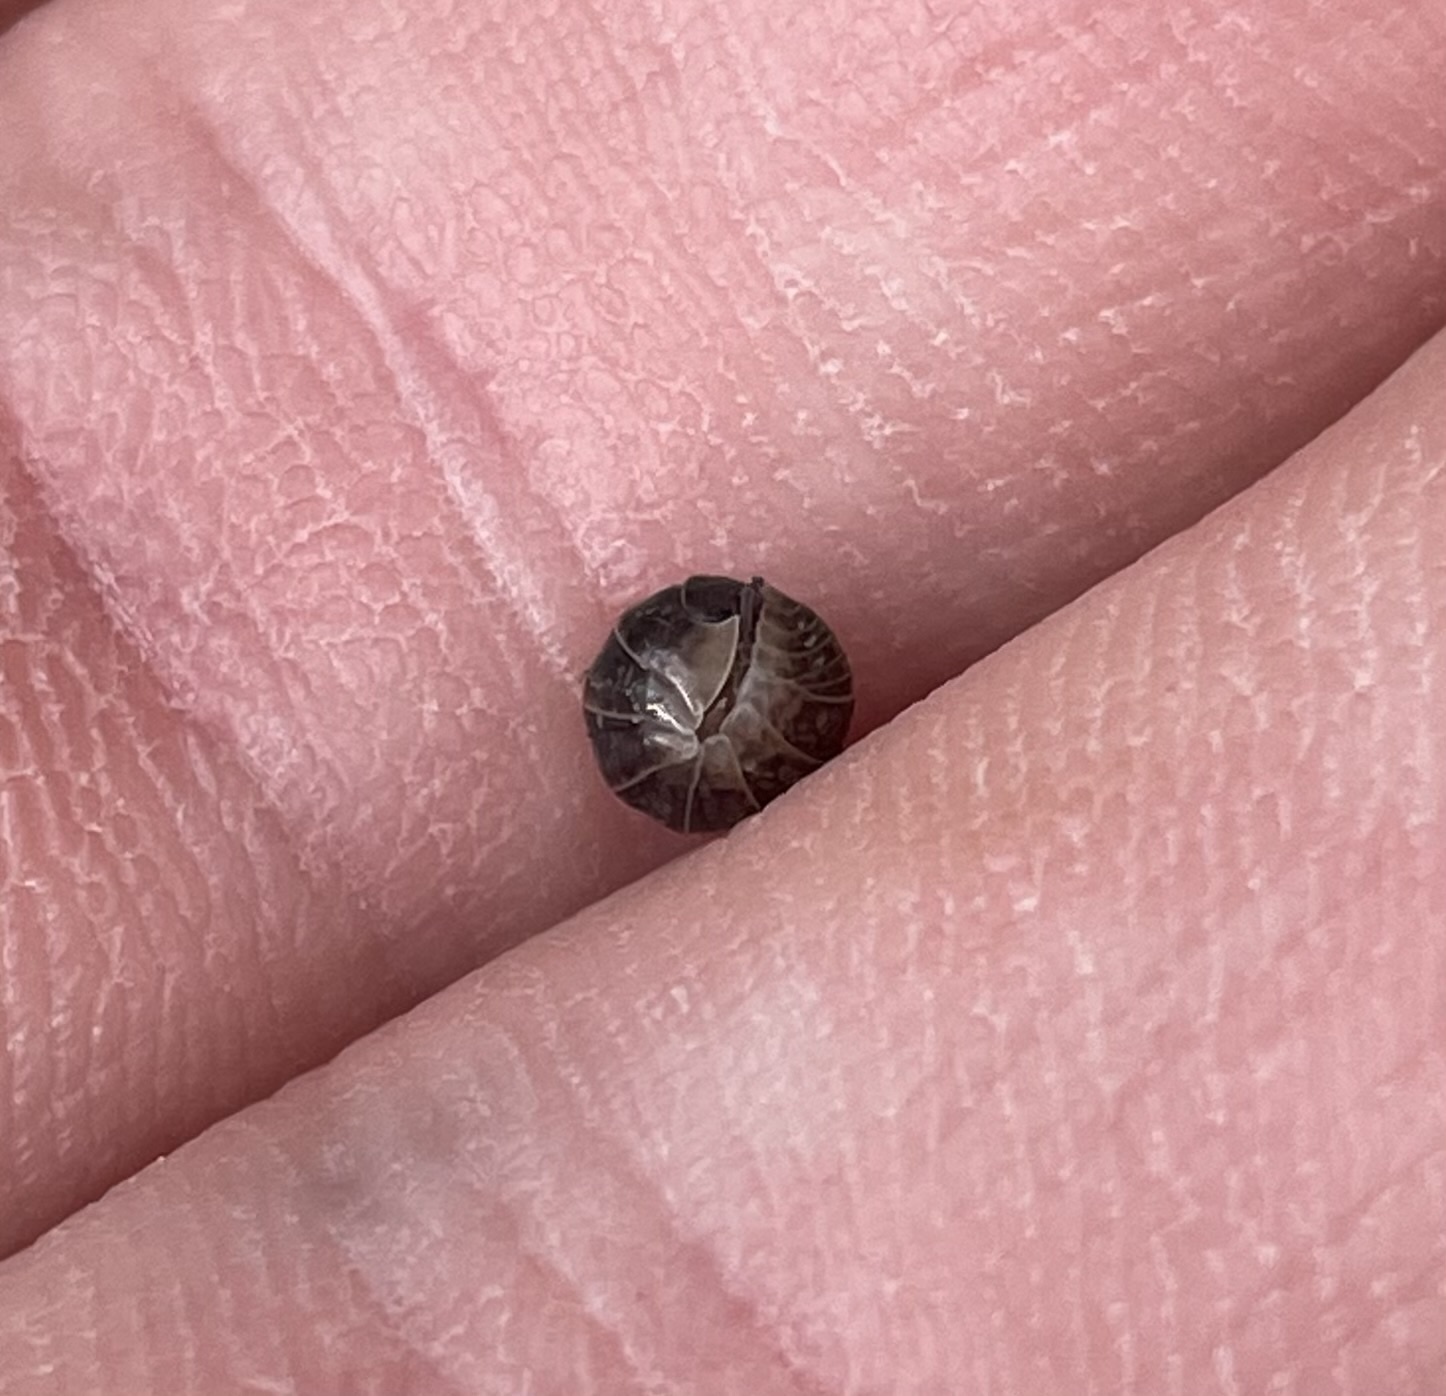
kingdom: Animalia
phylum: Arthropoda
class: Malacostraca
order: Isopoda
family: Armadillidiidae
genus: Armadillidium
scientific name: Armadillidium vulgare
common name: Common pill woodlouse
